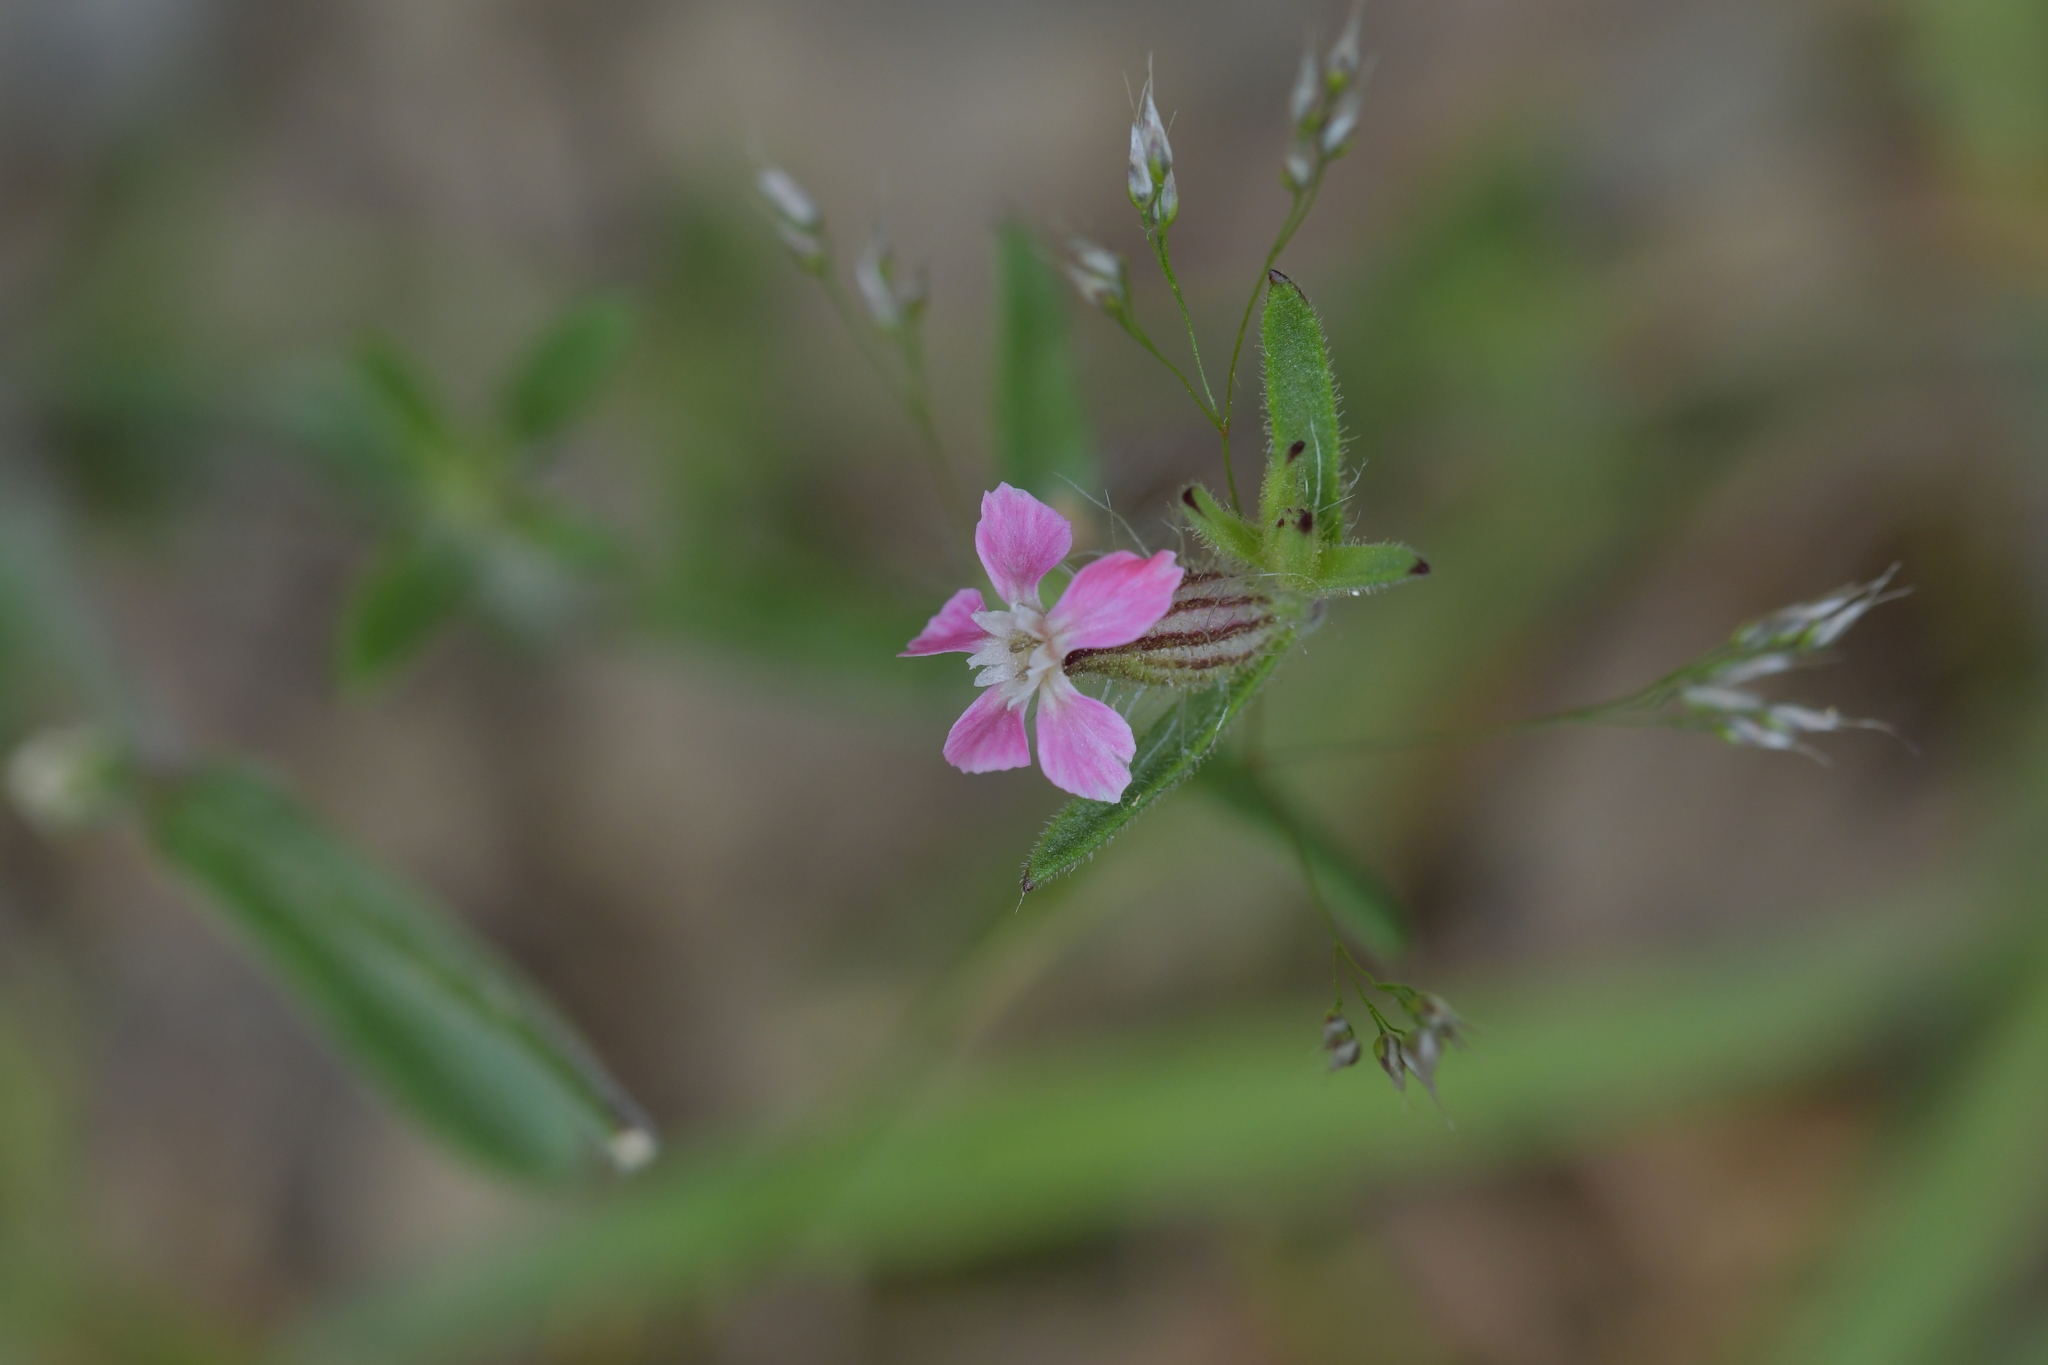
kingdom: Plantae
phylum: Tracheophyta
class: Magnoliopsida
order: Caryophyllales
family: Caryophyllaceae
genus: Silene
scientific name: Silene gallica
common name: Small-flowered catchfly
